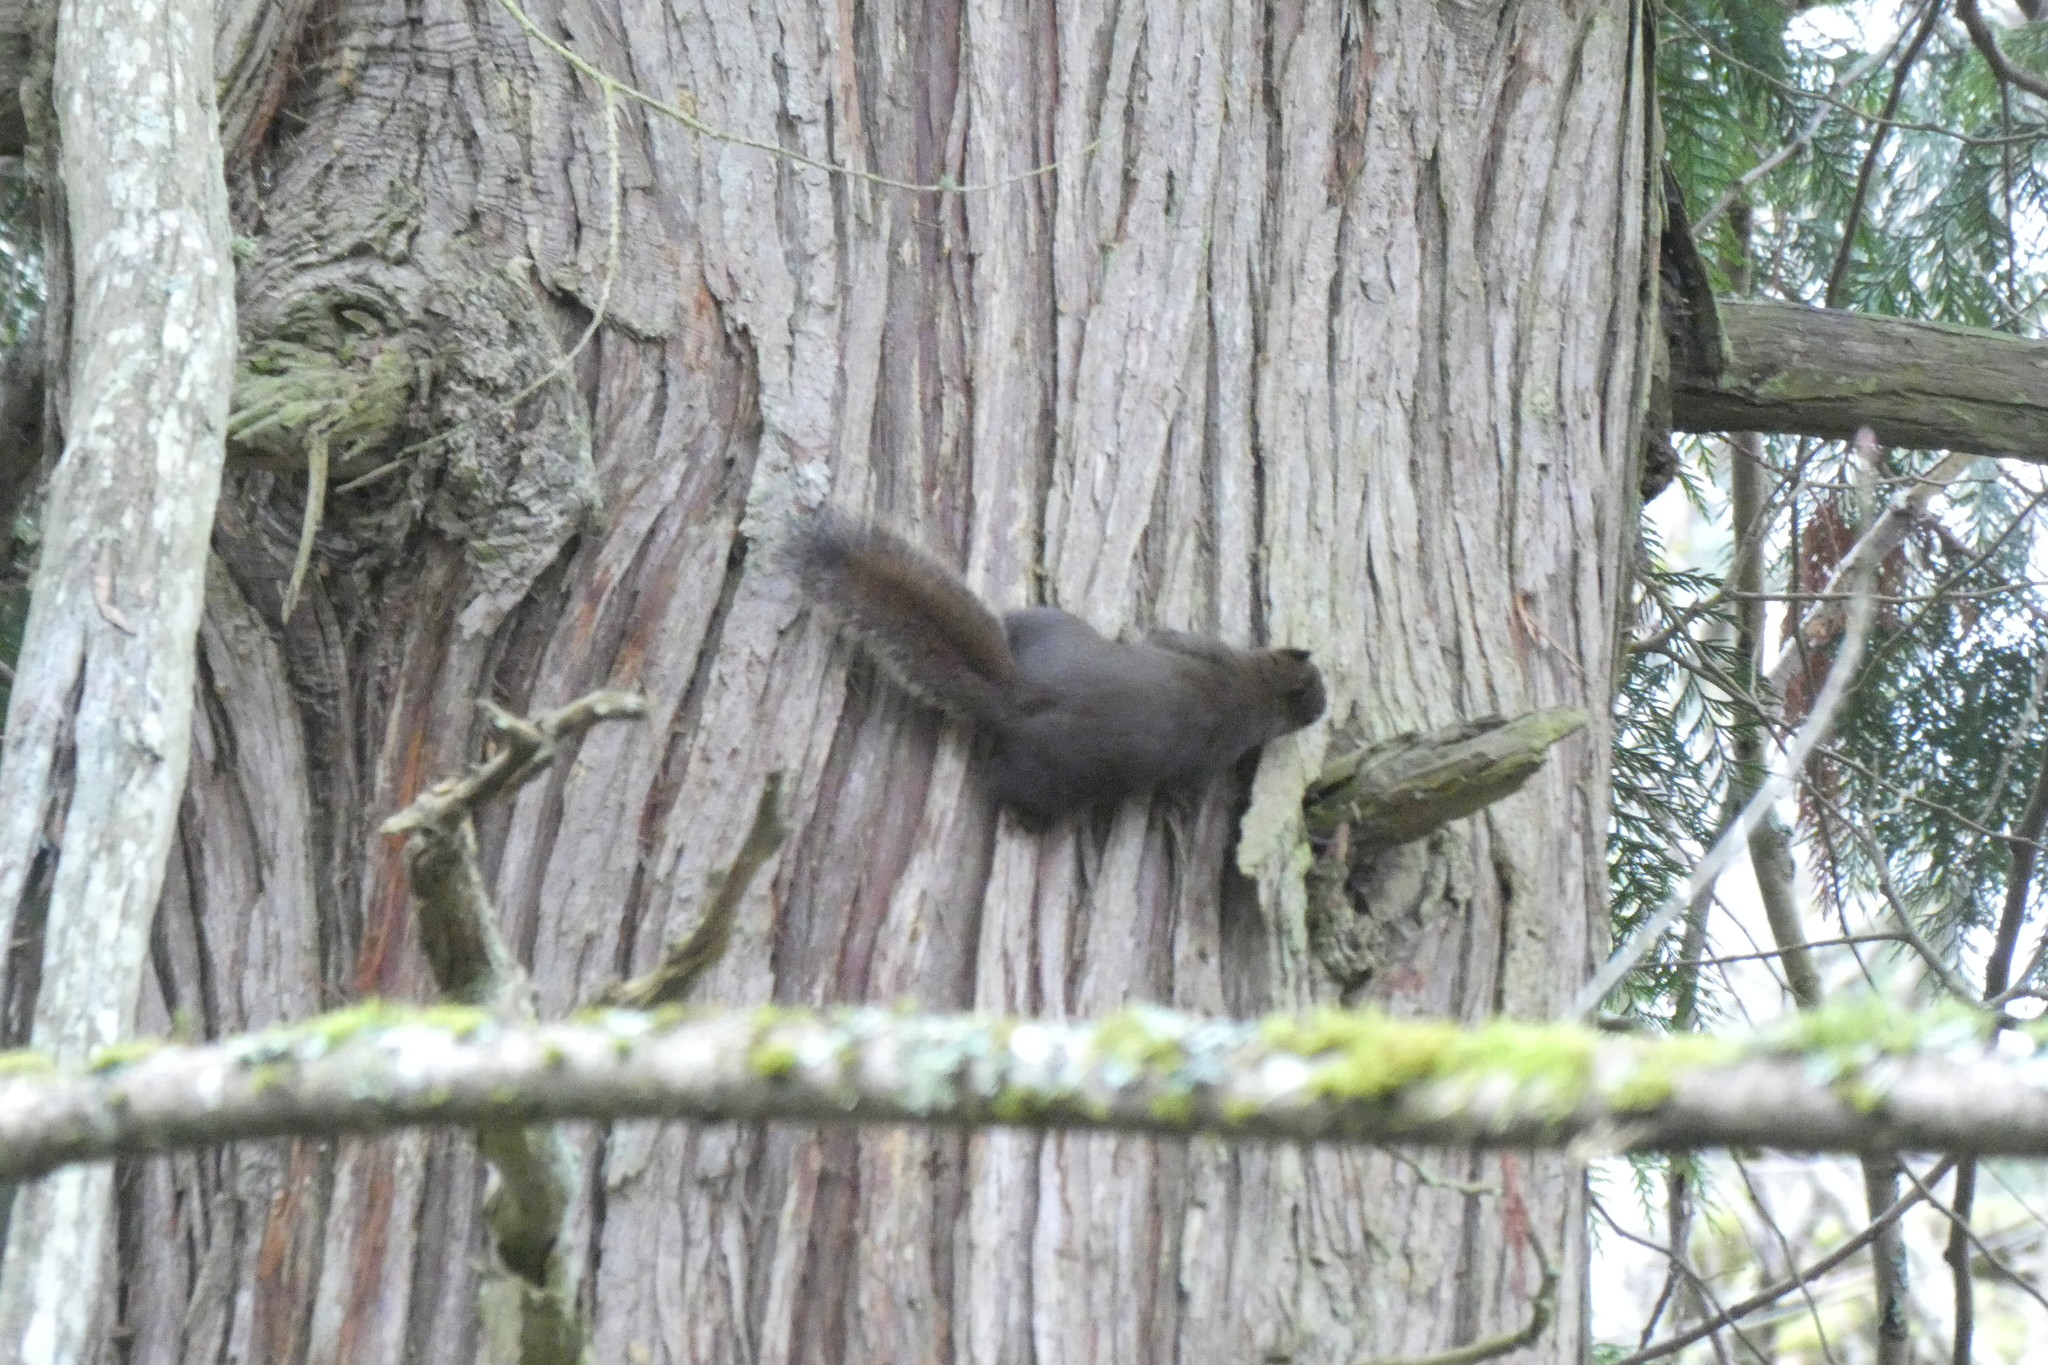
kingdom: Animalia
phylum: Chordata
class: Mammalia
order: Rodentia
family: Sciuridae
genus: Tamiasciurus
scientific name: Tamiasciurus douglasii
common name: Douglas's squirrel
